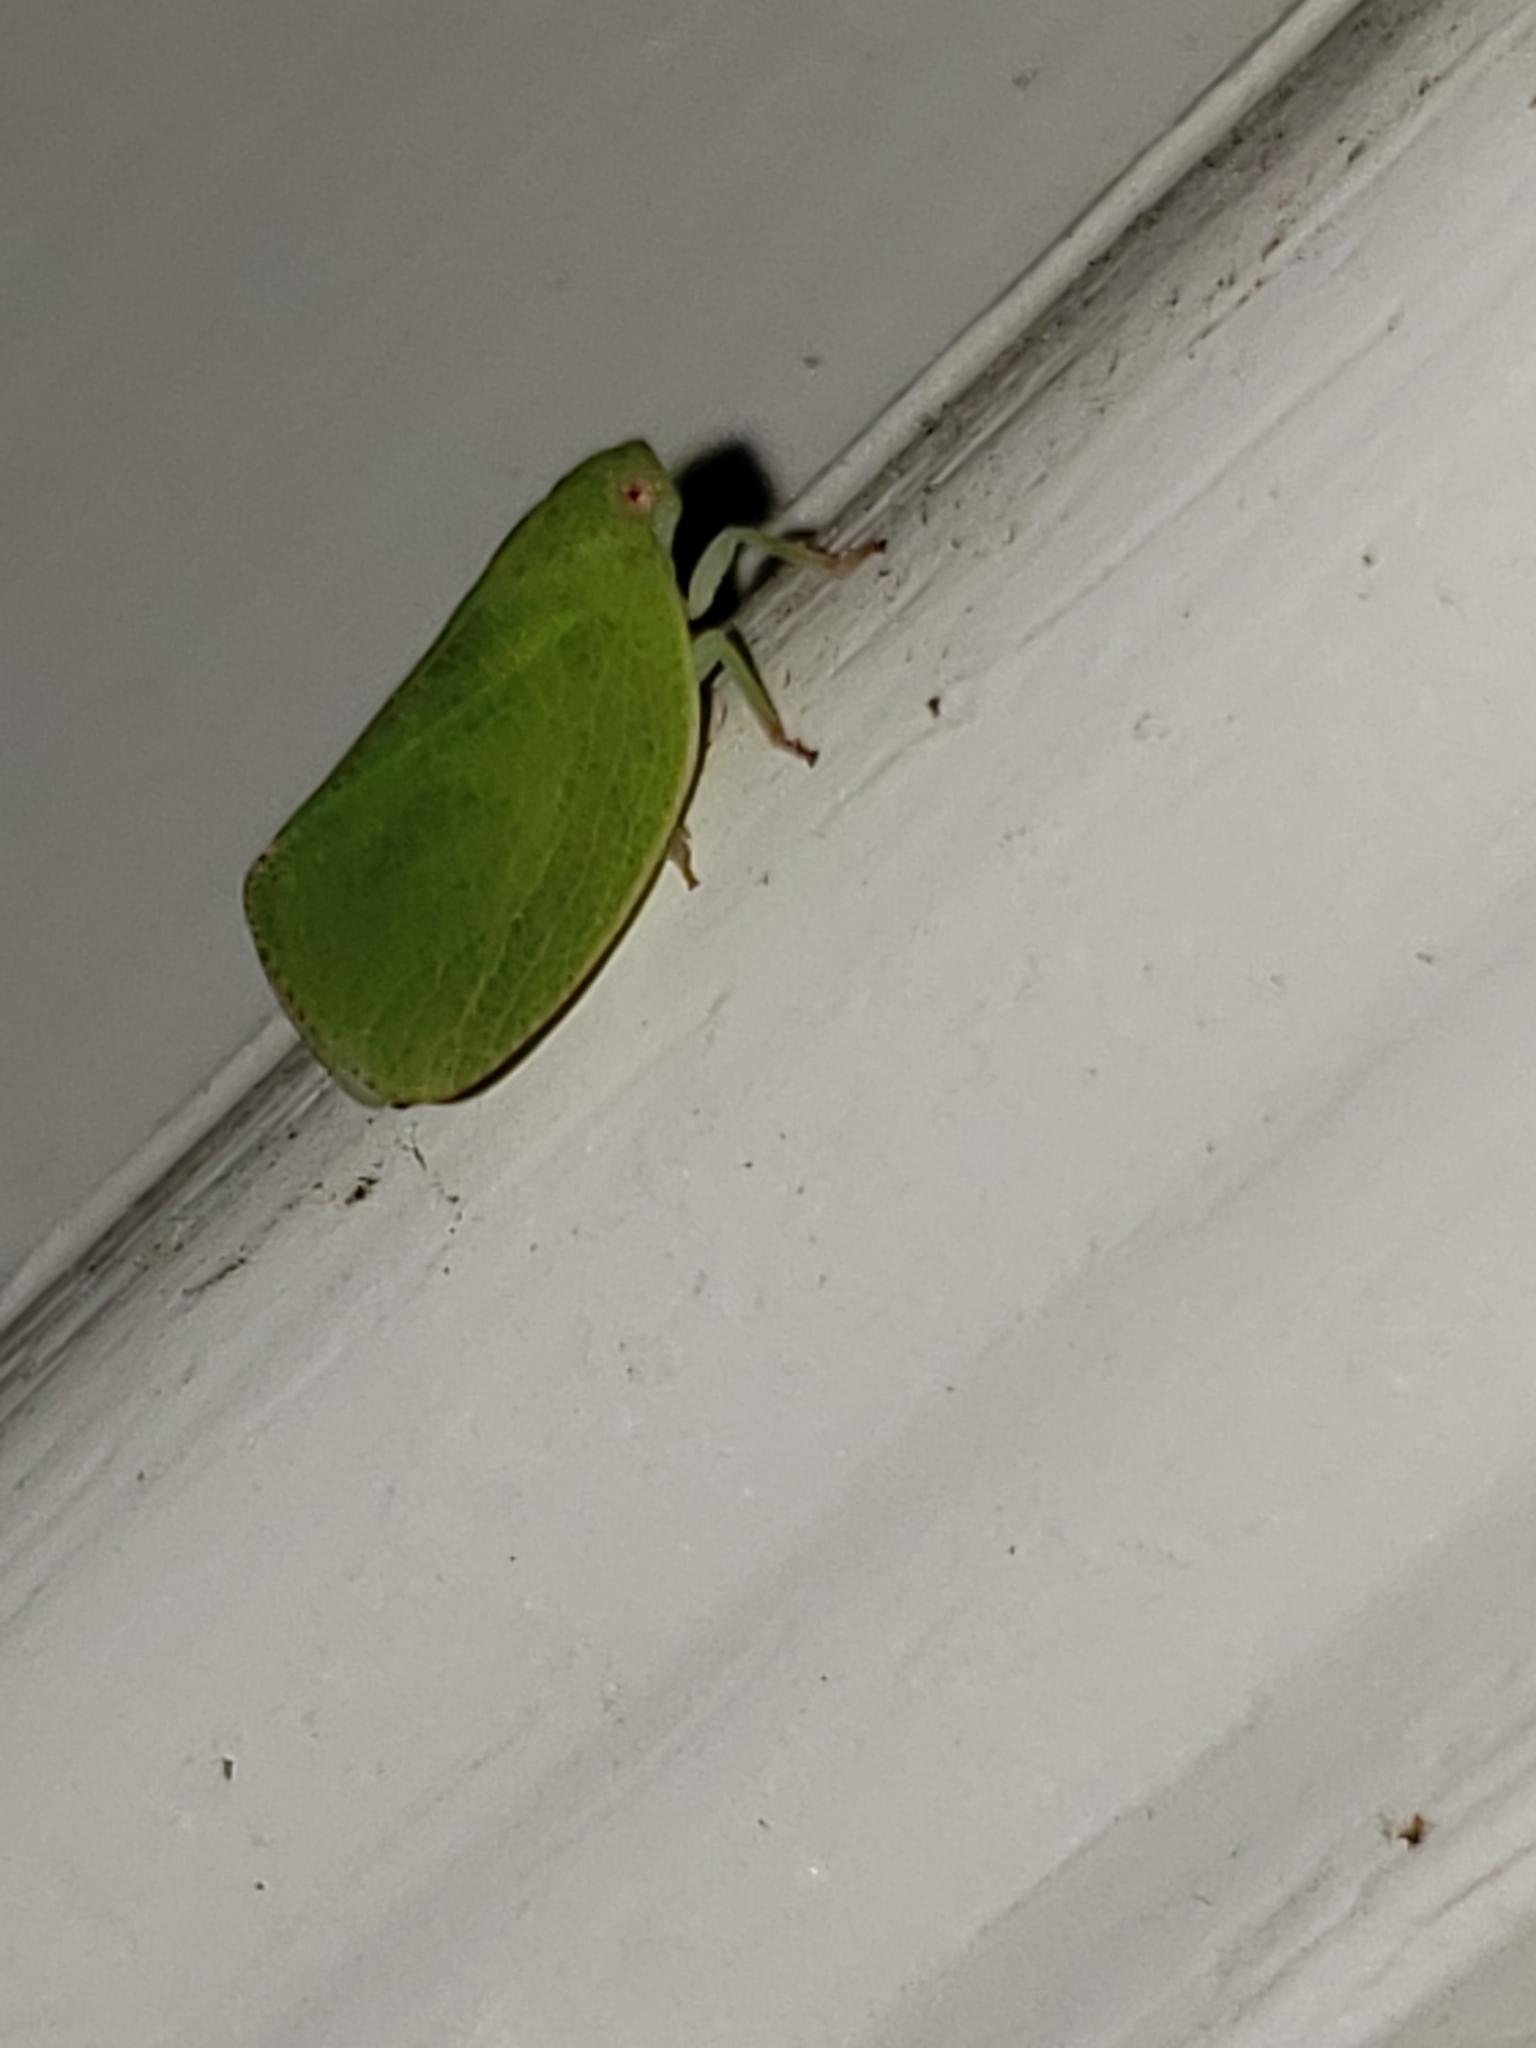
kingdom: Animalia
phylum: Arthropoda
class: Insecta
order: Hemiptera
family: Acanaloniidae
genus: Acanalonia
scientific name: Acanalonia conica
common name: Green cone-headed planthopper
